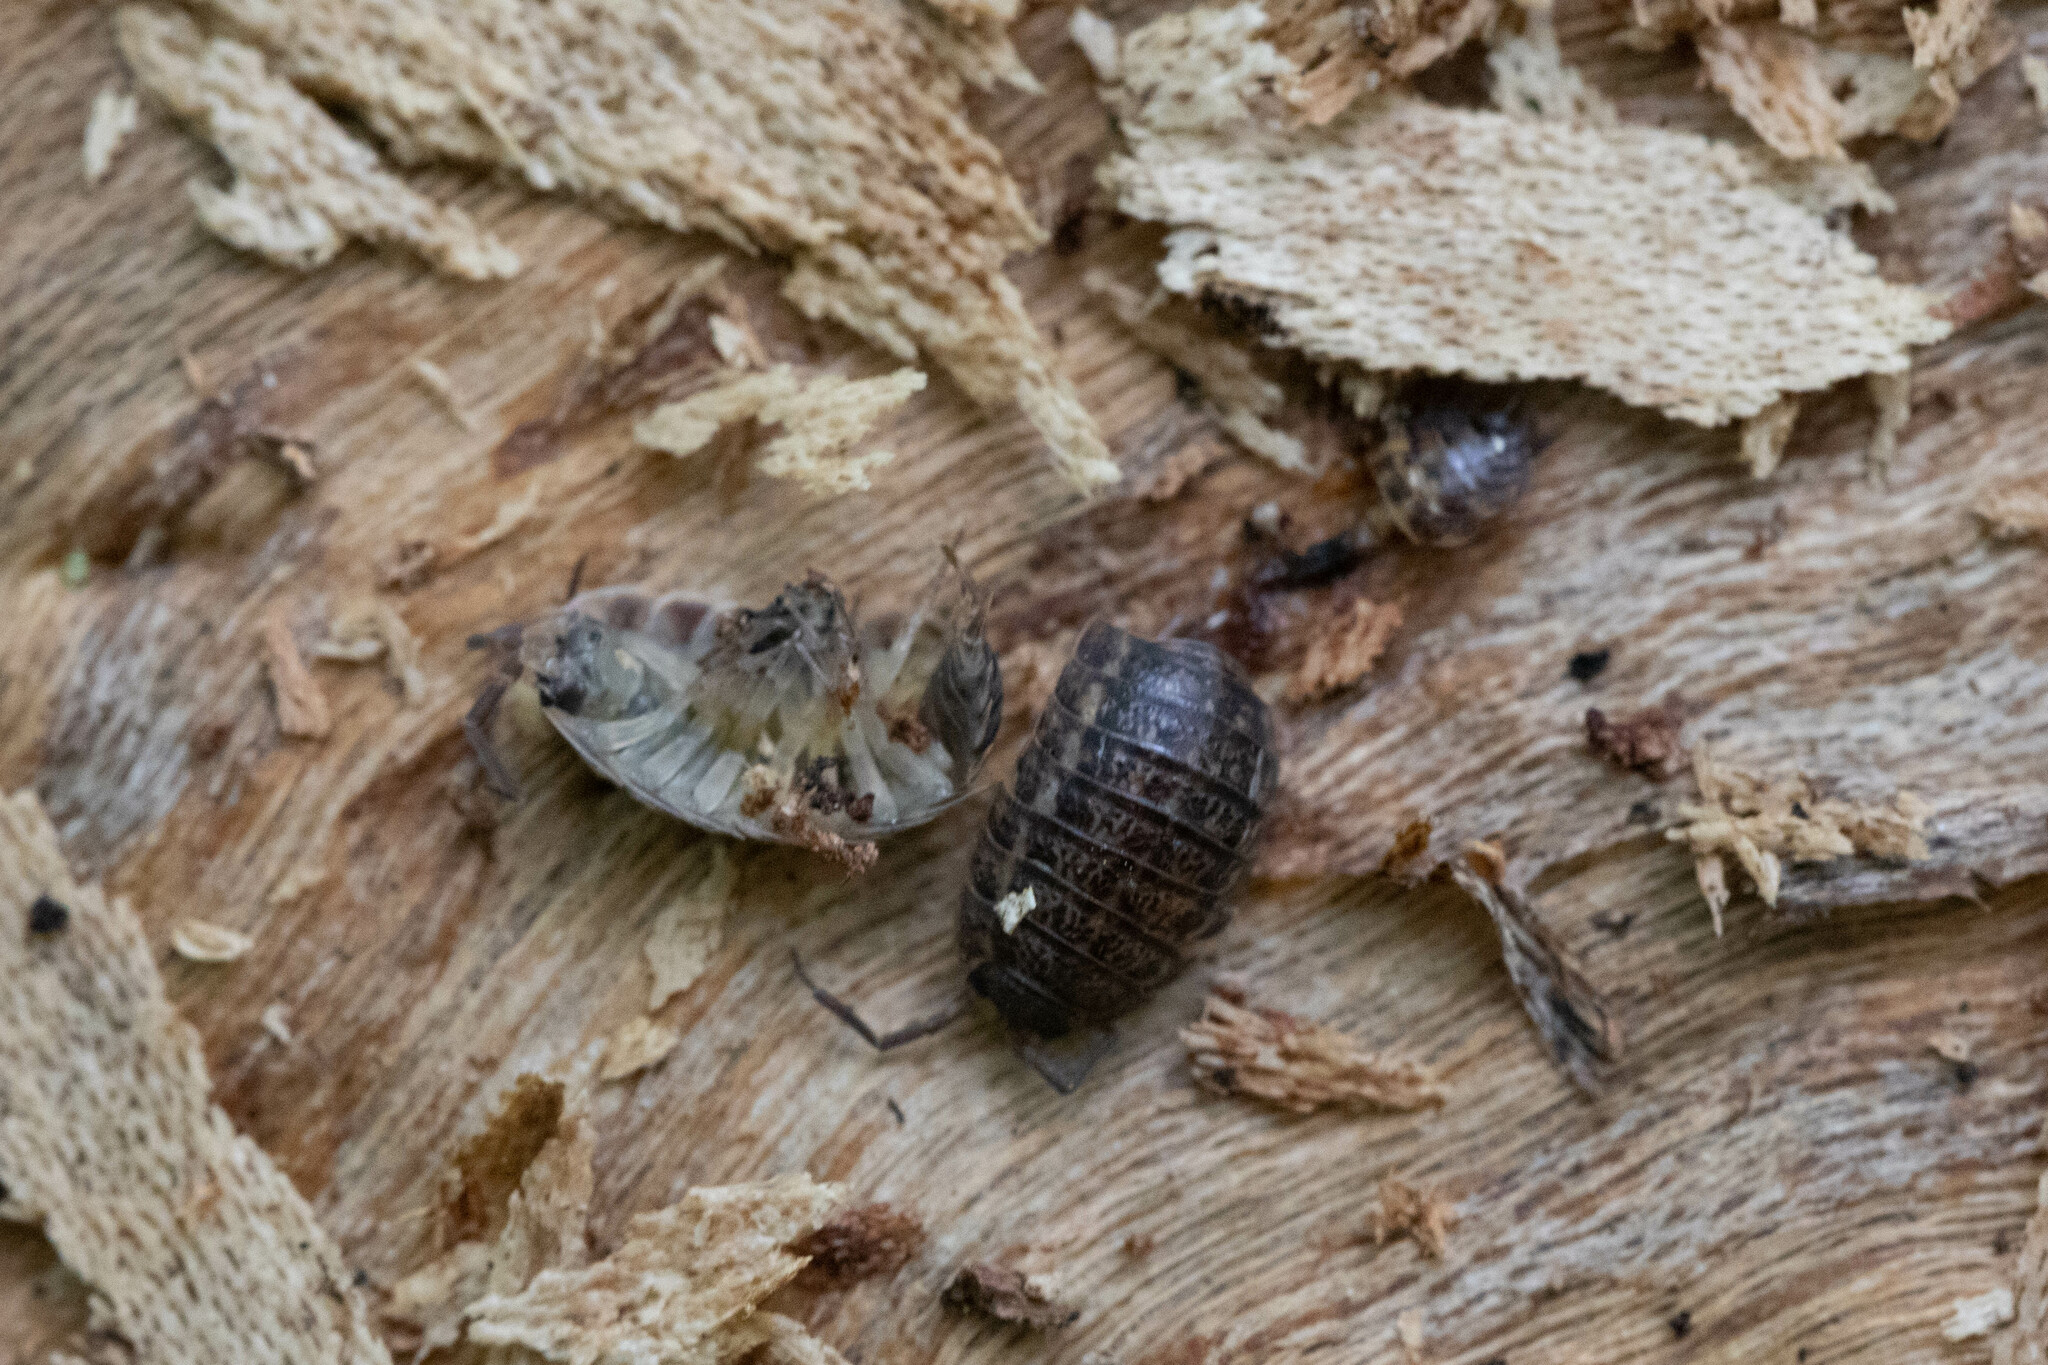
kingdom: Animalia
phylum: Arthropoda
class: Malacostraca
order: Isopoda
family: Trachelipodidae
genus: Trachelipus
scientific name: Trachelipus rathkii
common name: Isopod
